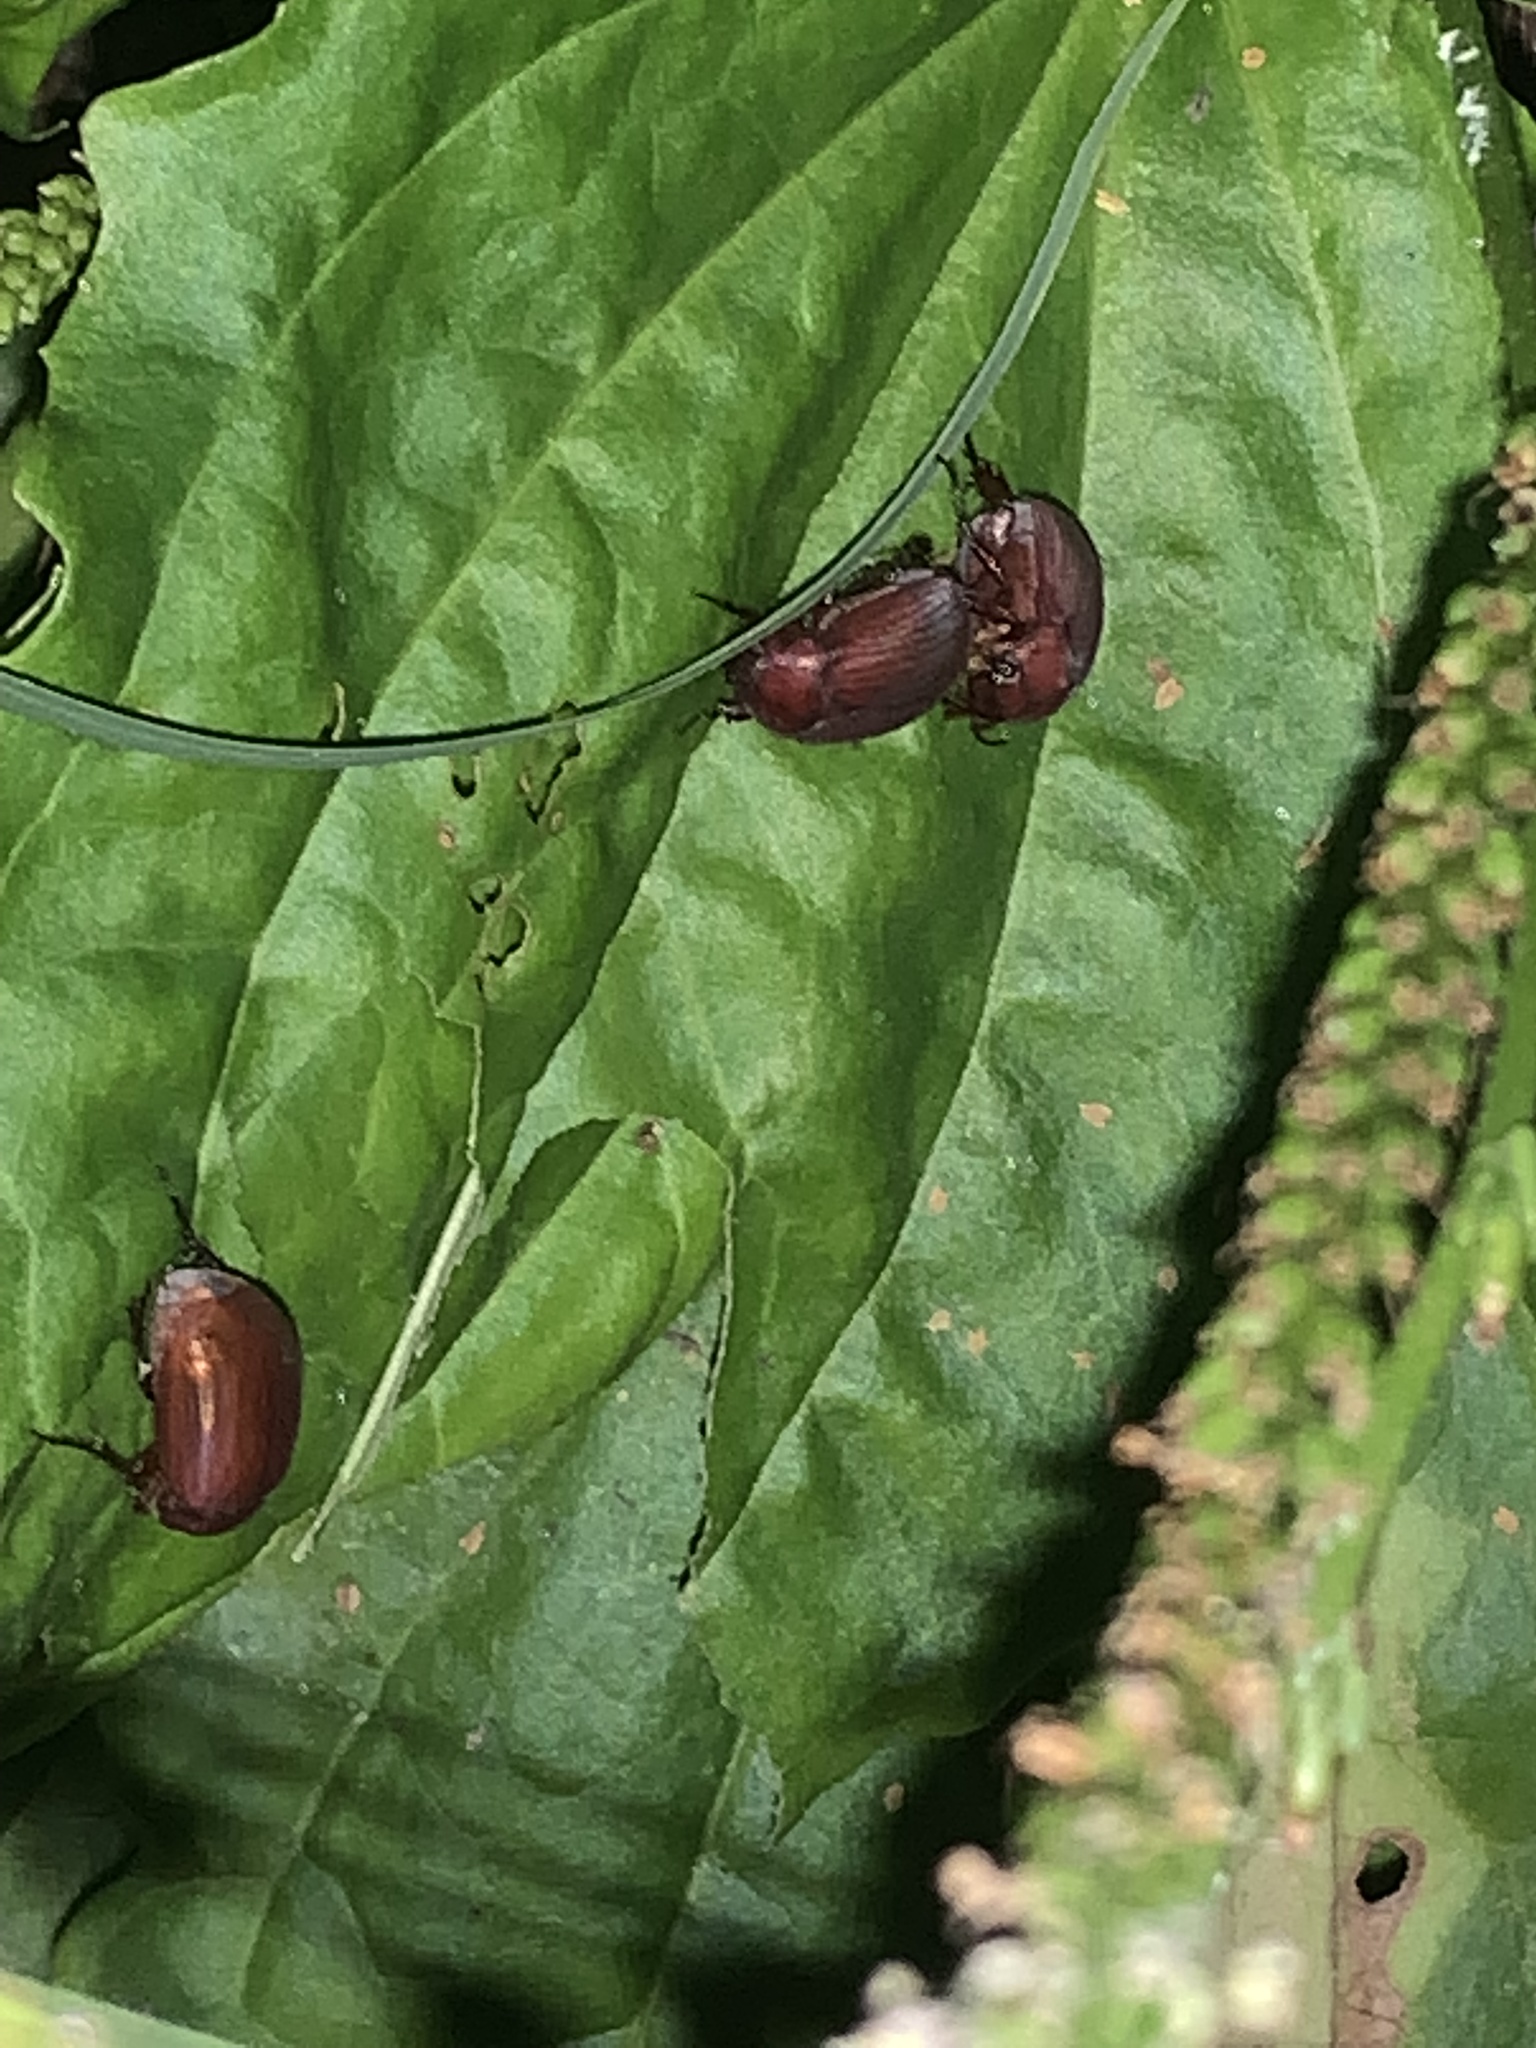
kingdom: Animalia
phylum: Arthropoda
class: Insecta
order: Coleoptera
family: Scarabaeidae
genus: Maladera
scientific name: Maladera formosae
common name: Asiatic garden beetle
